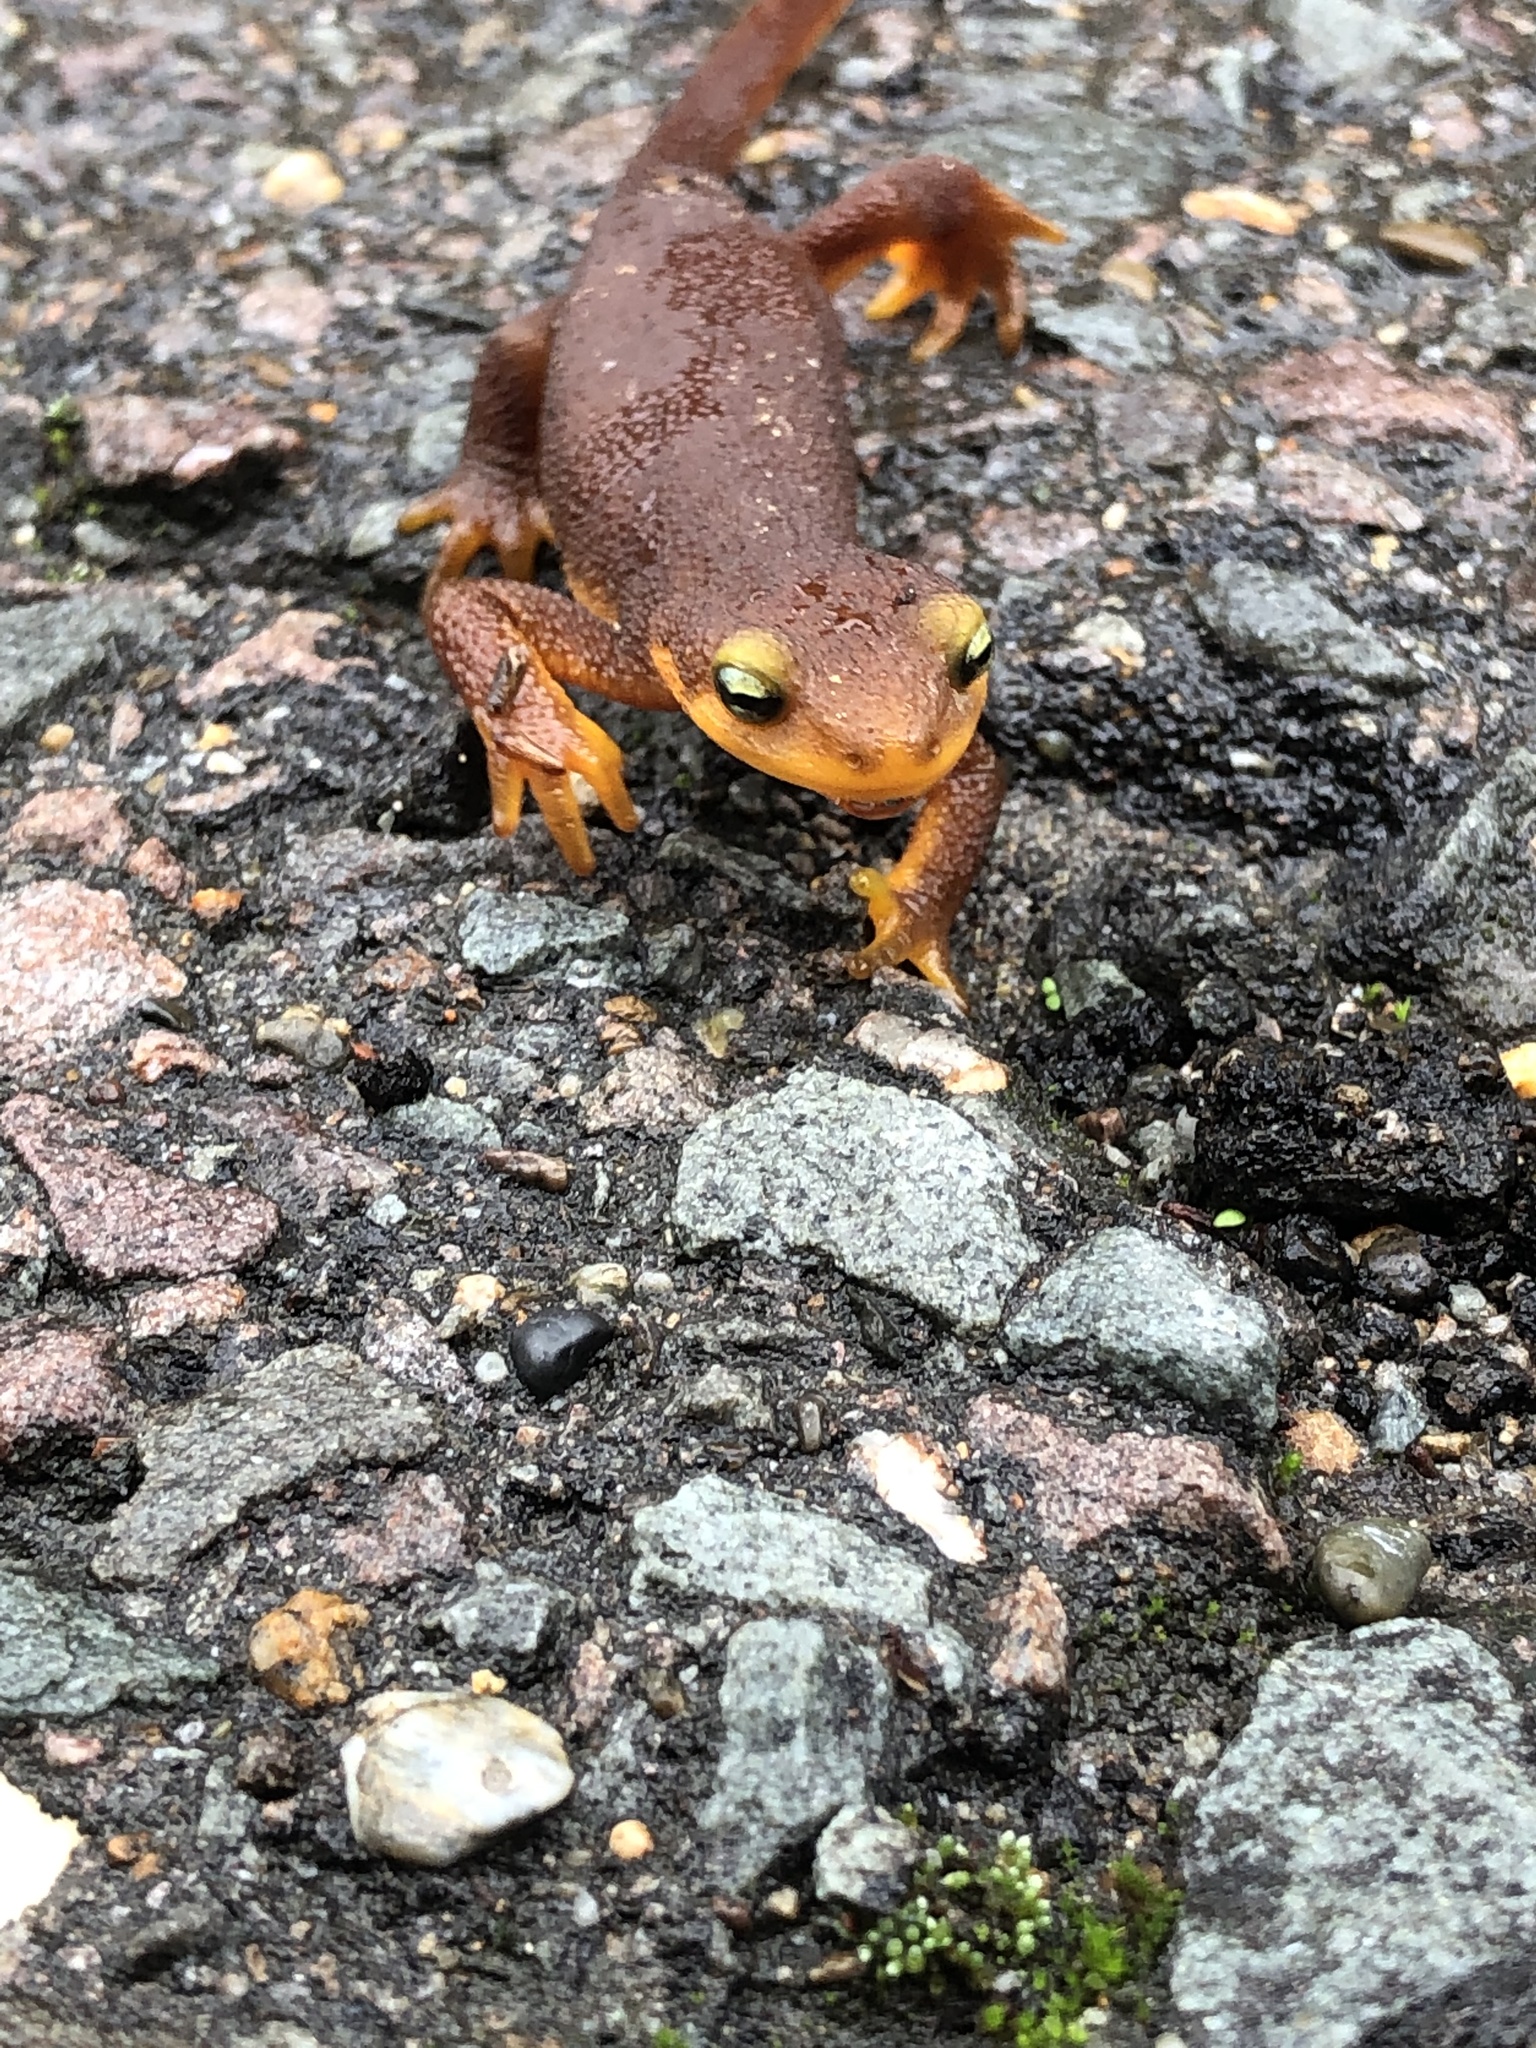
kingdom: Animalia
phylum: Chordata
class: Amphibia
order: Caudata
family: Salamandridae
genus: Taricha
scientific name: Taricha torosa
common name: California newt
